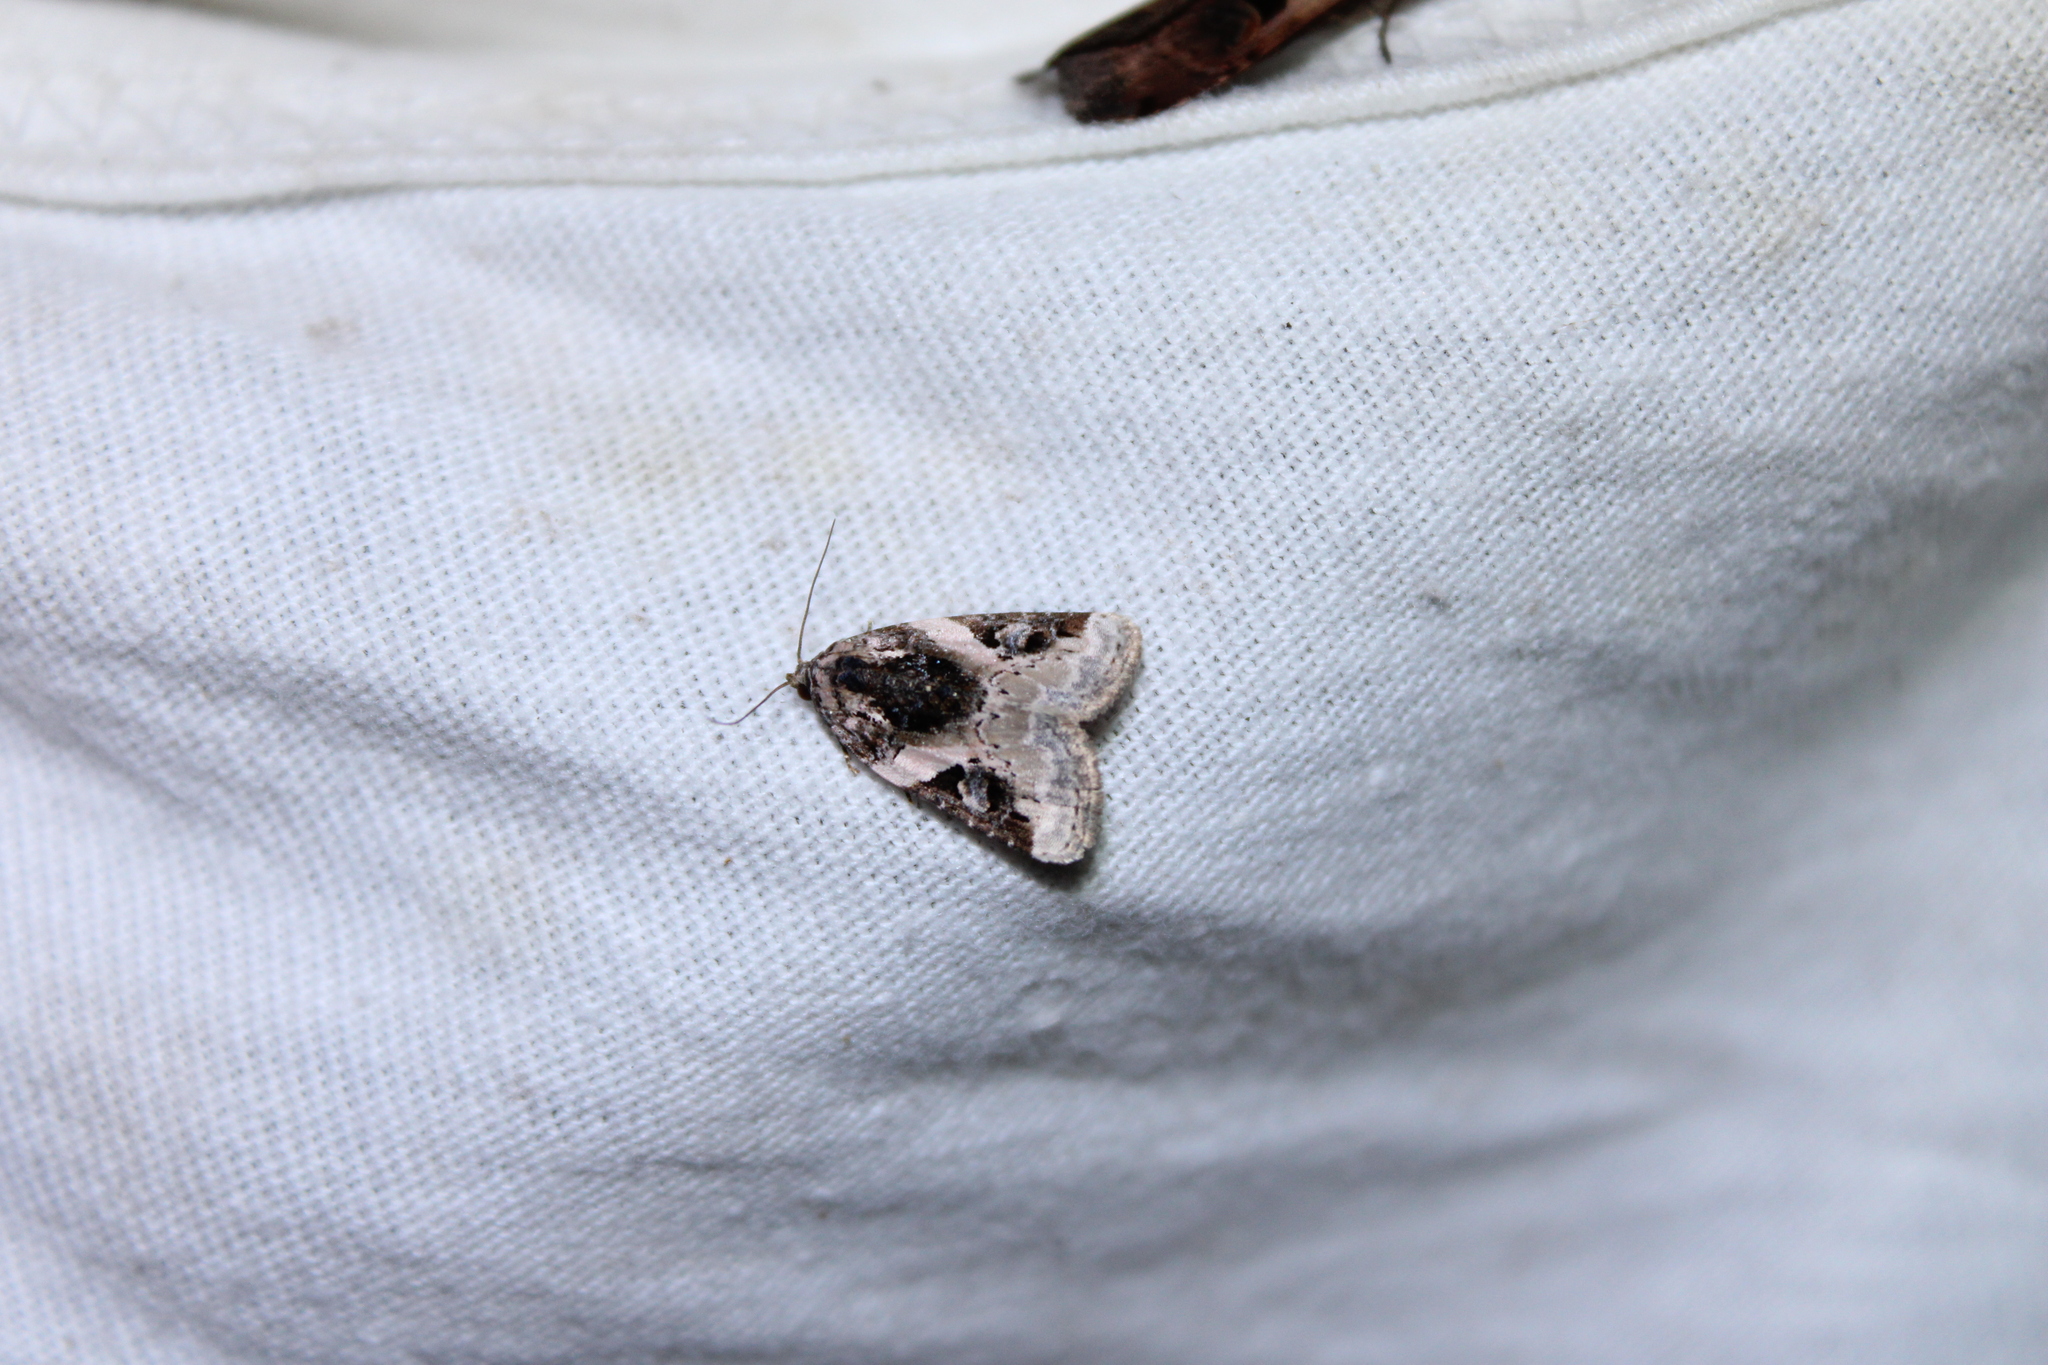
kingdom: Animalia
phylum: Arthropoda
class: Insecta
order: Lepidoptera
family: Noctuidae
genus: Pseudeustrotia
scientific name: Pseudeustrotia carneola
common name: Pink-barred lithacodia moth
